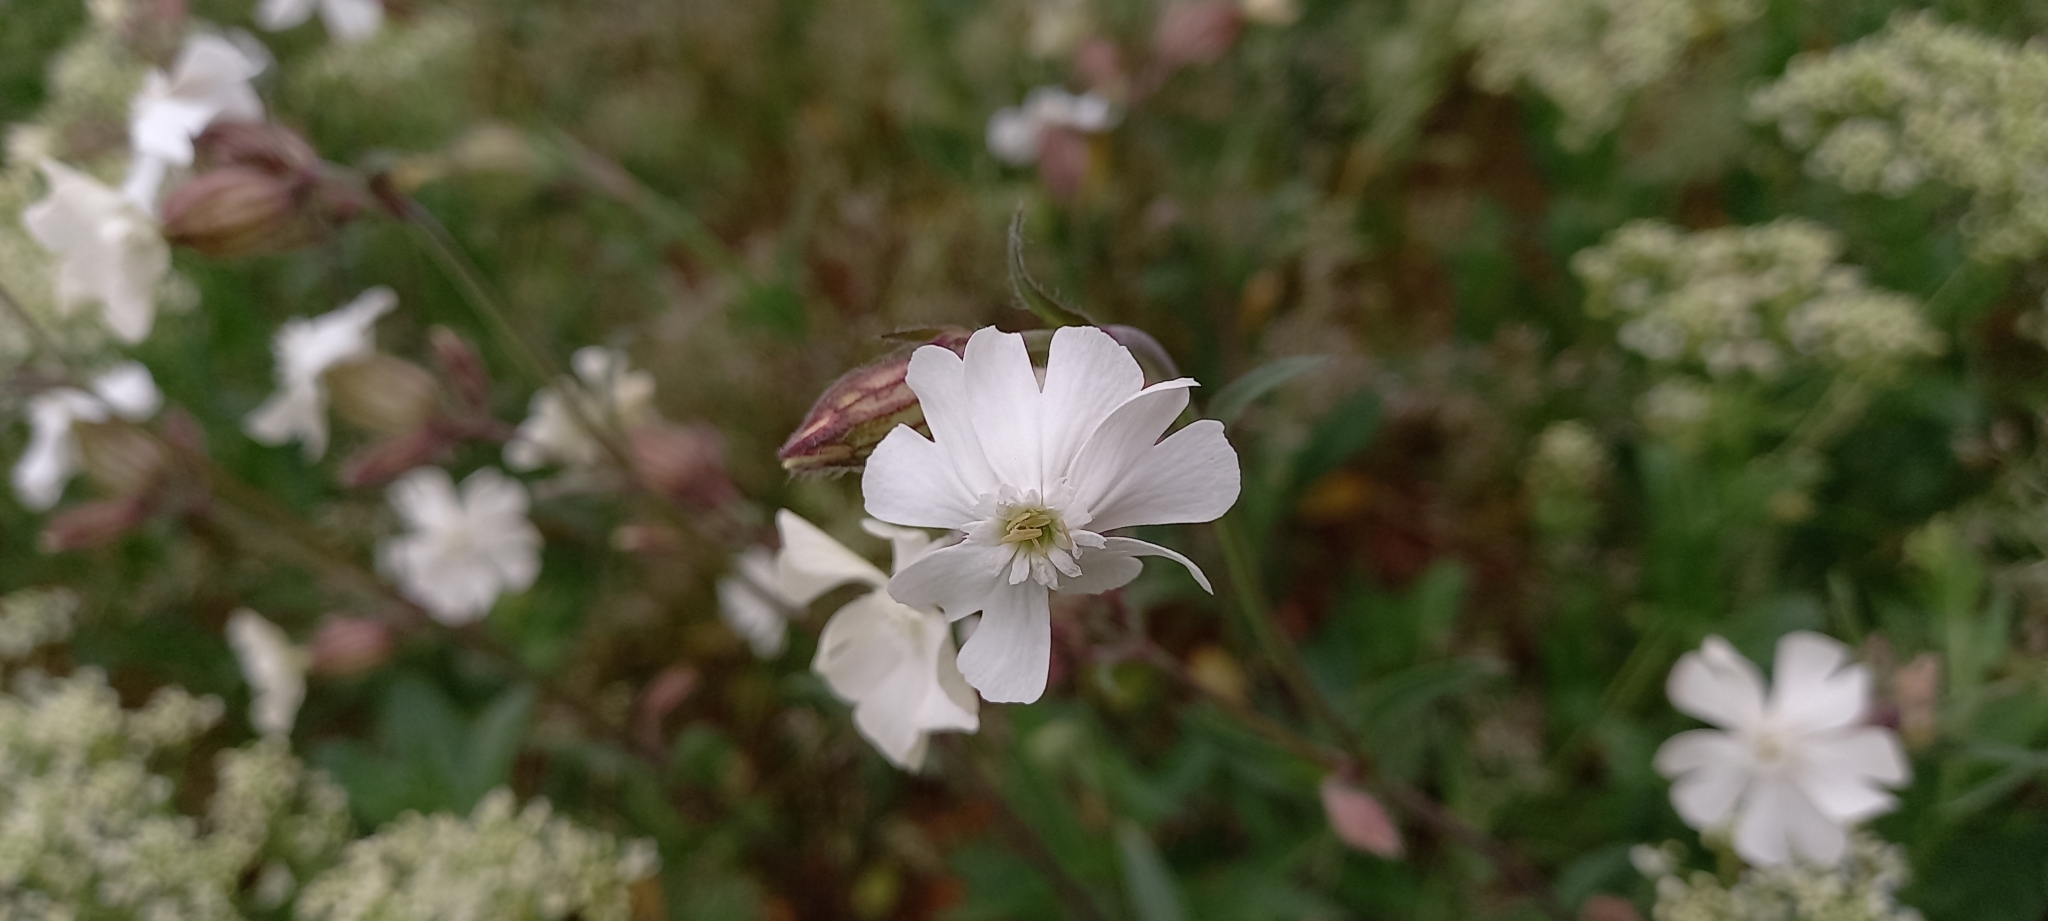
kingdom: Plantae
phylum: Tracheophyta
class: Magnoliopsida
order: Caryophyllales
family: Caryophyllaceae
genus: Silene
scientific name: Silene latifolia
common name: White campion
